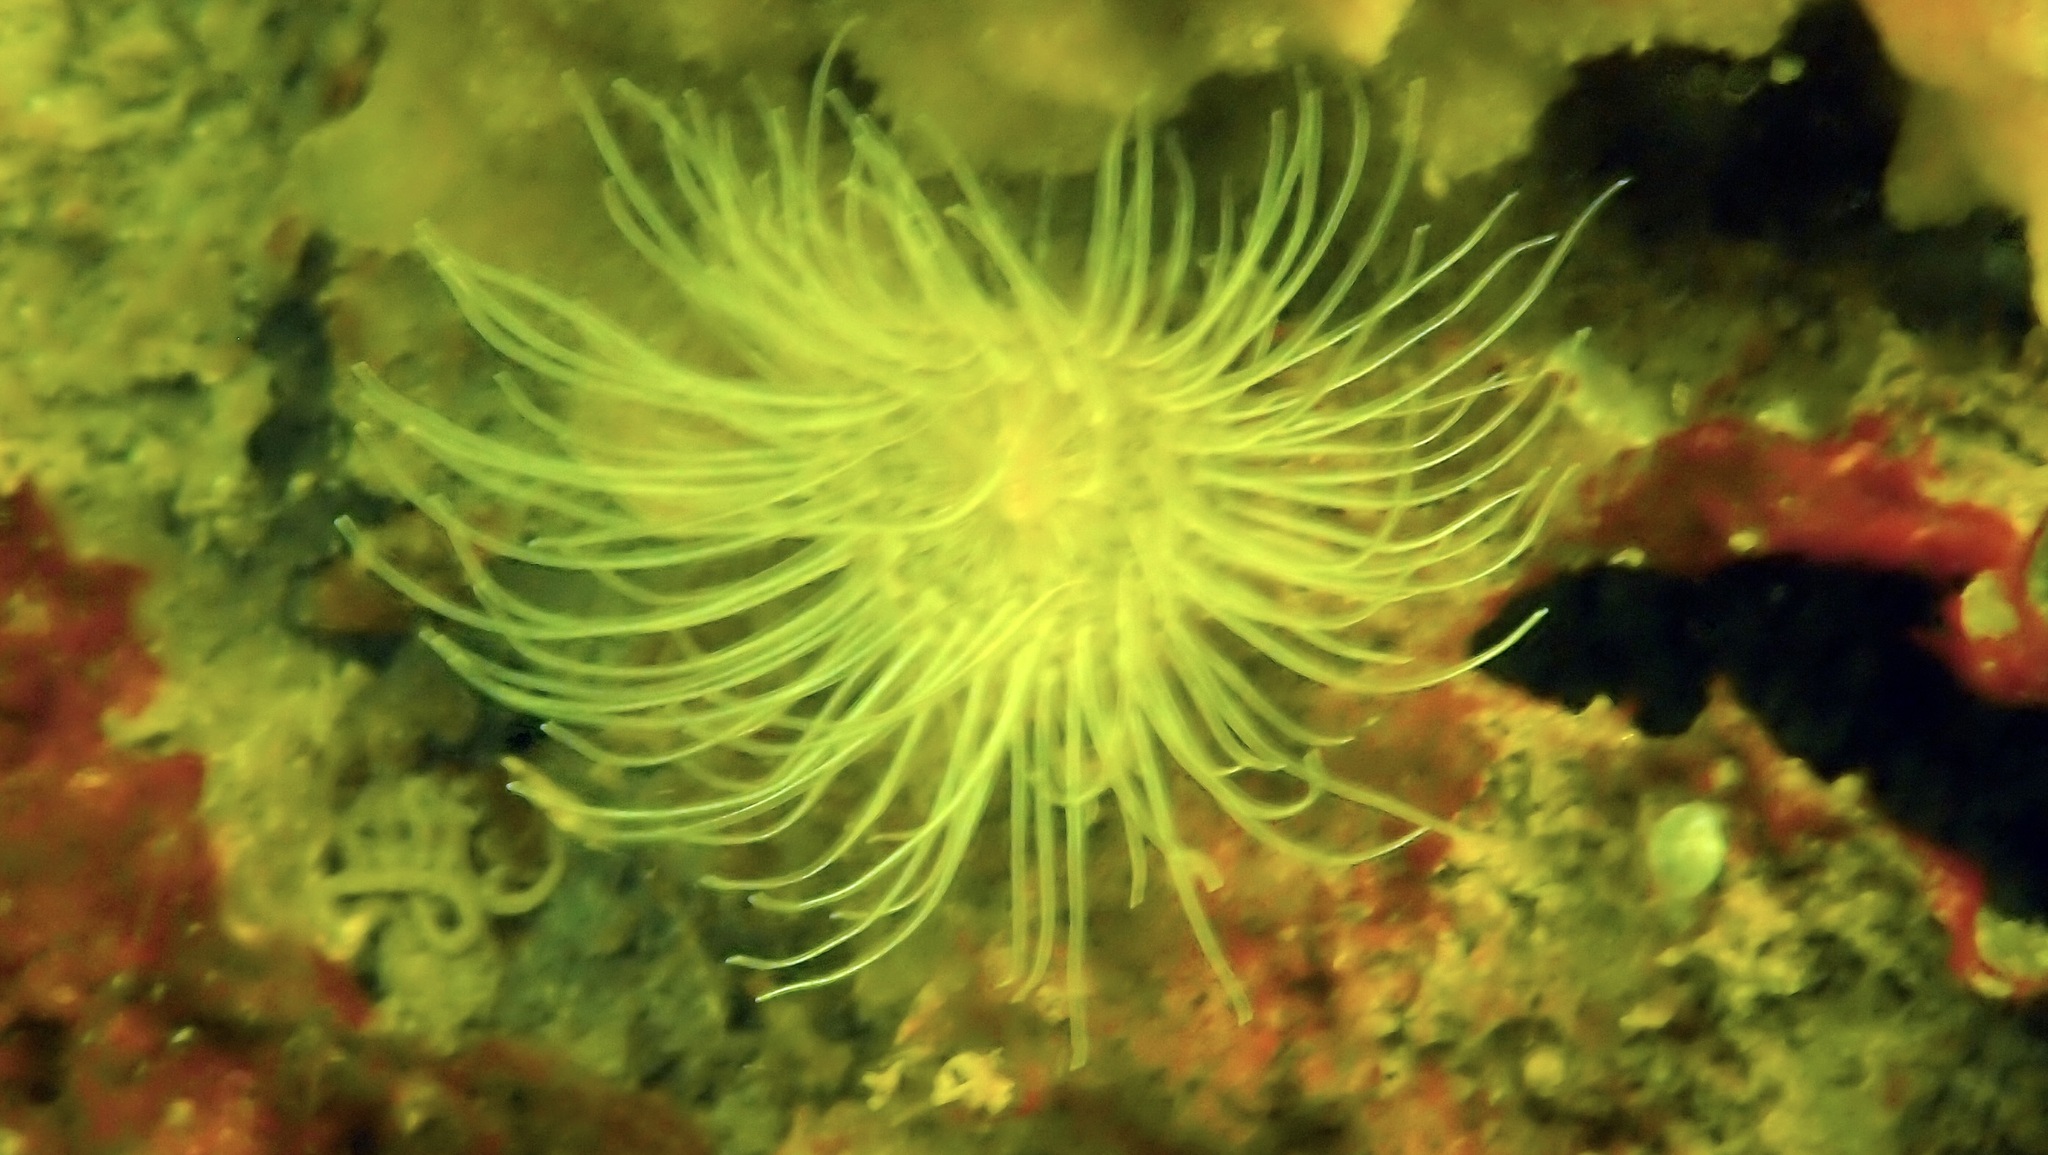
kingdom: Animalia
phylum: Cnidaria
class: Anthozoa
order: Actiniaria
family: Sagartiidae
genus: Sagartia
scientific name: Sagartia undata
